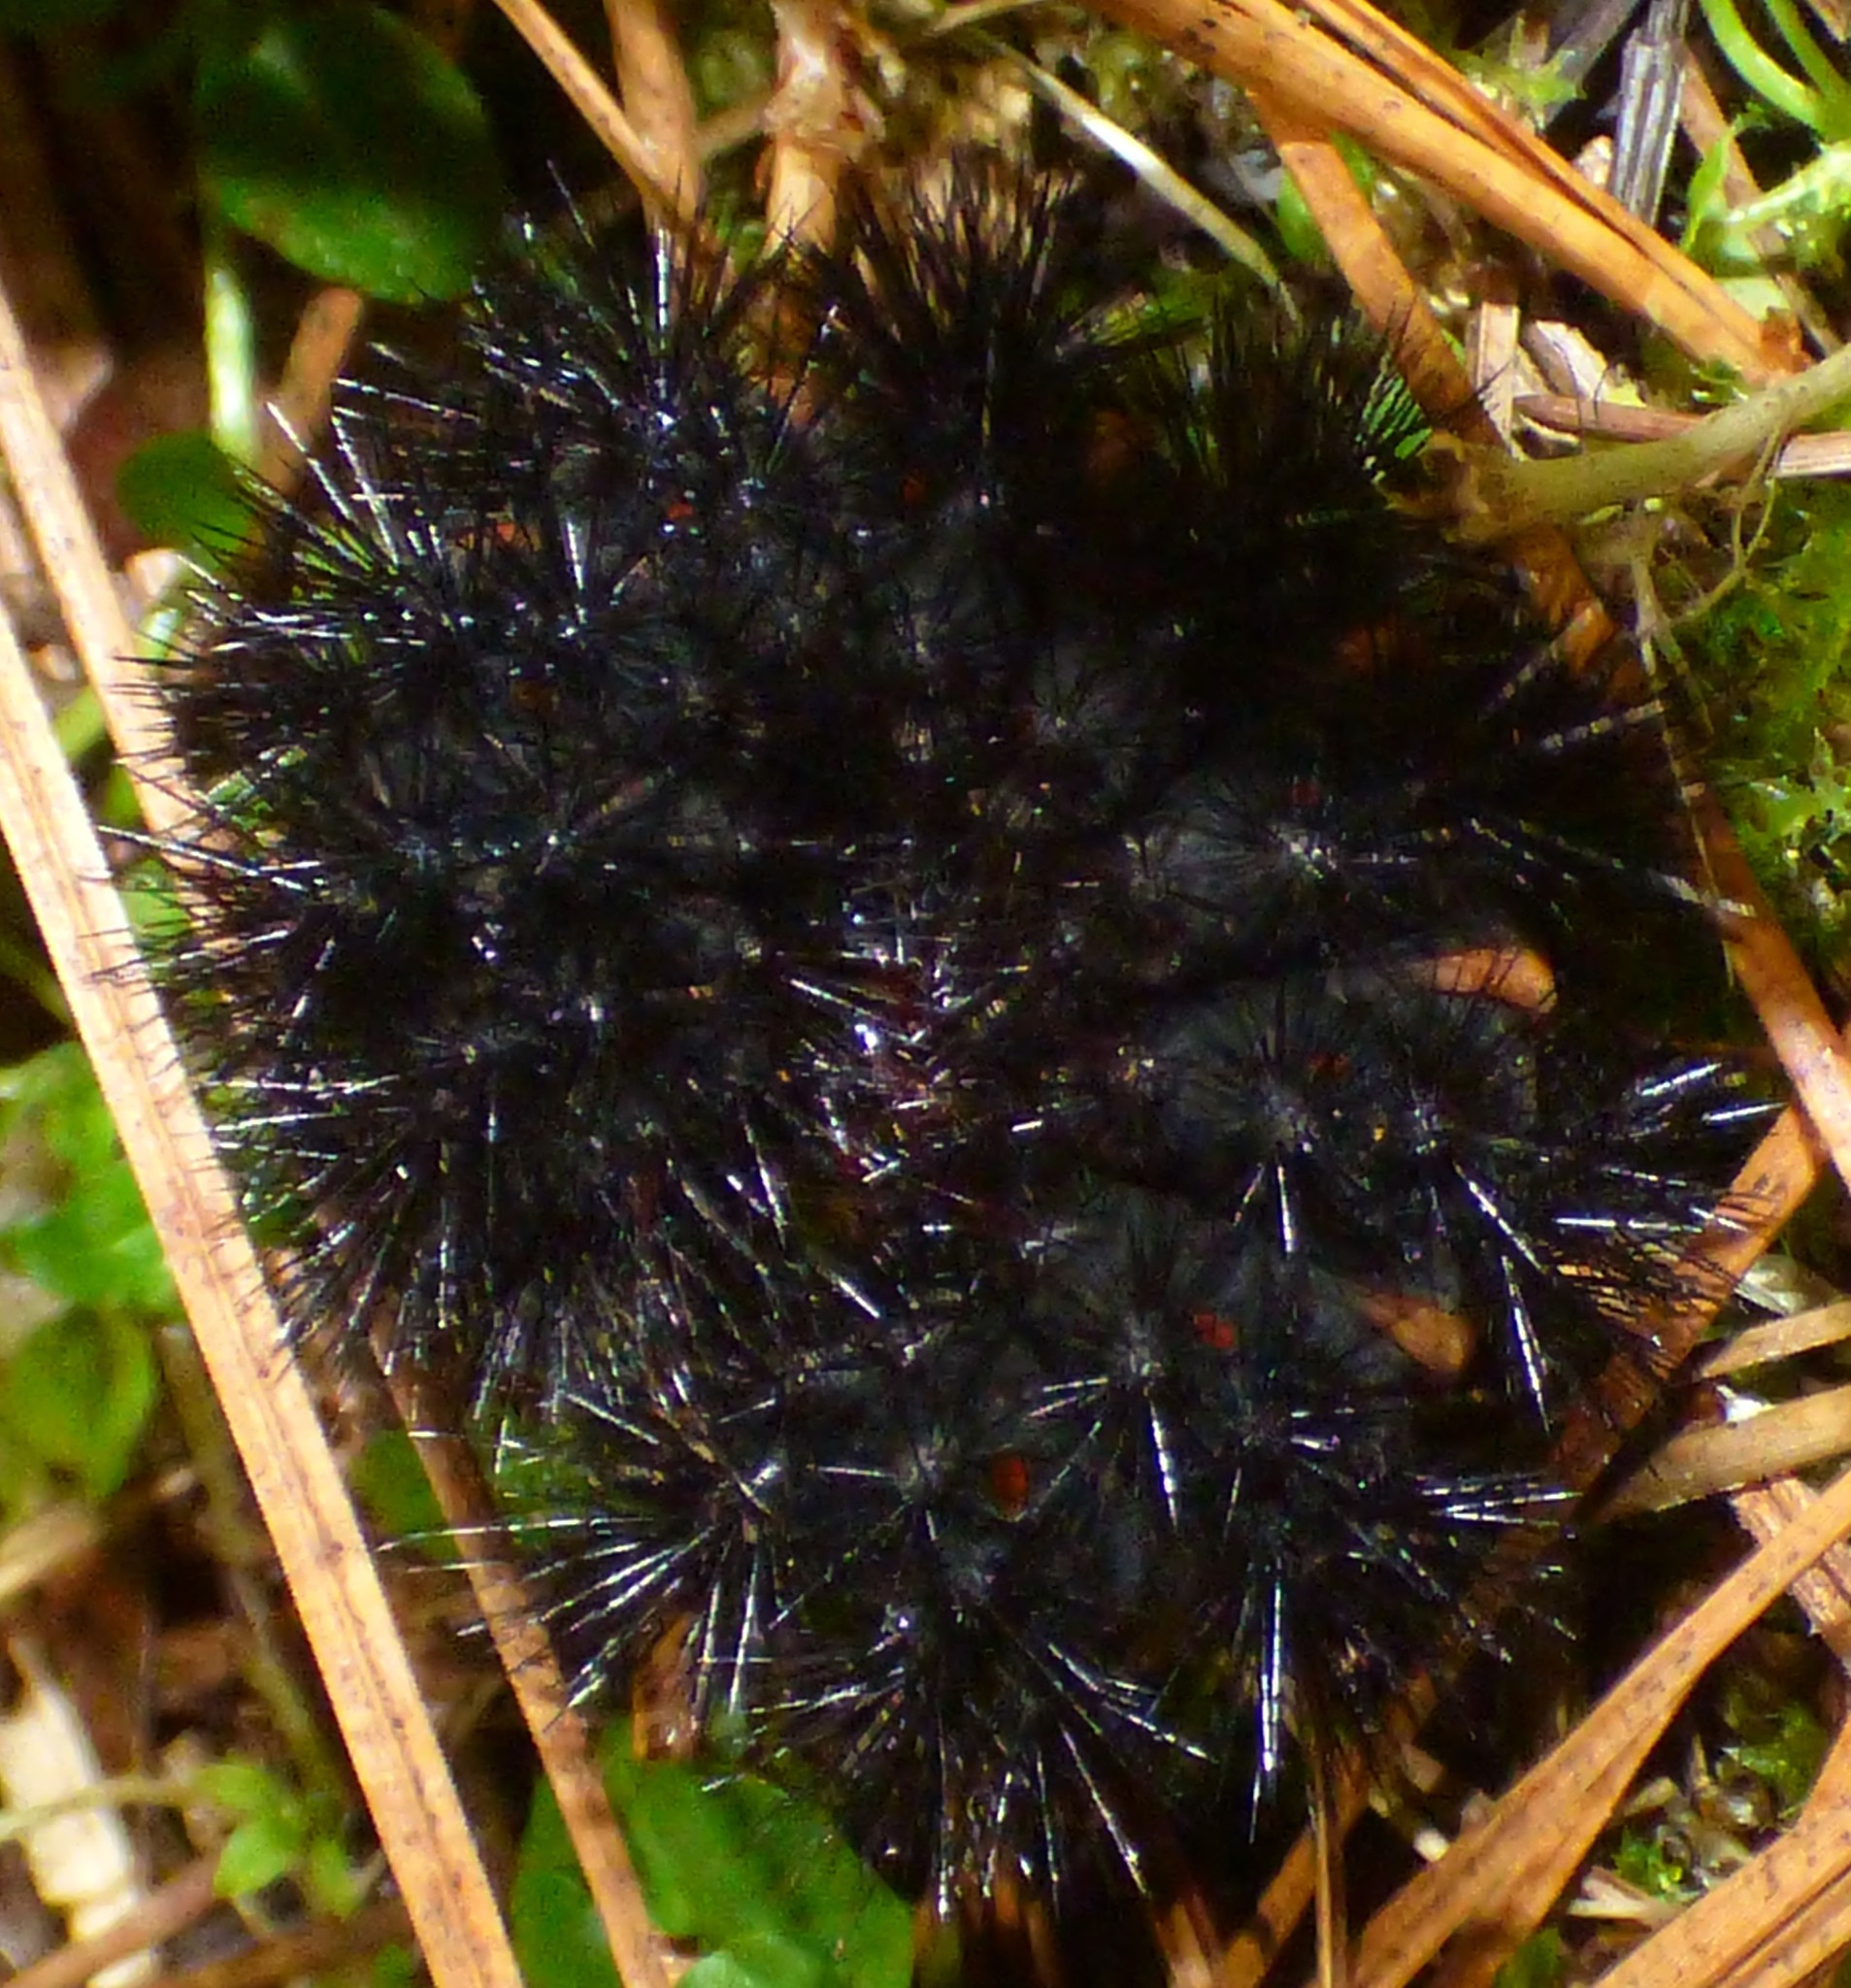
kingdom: Animalia
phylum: Arthropoda
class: Insecta
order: Lepidoptera
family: Erebidae
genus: Hypercompe
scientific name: Hypercompe scribonia
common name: Giant leopard moth
